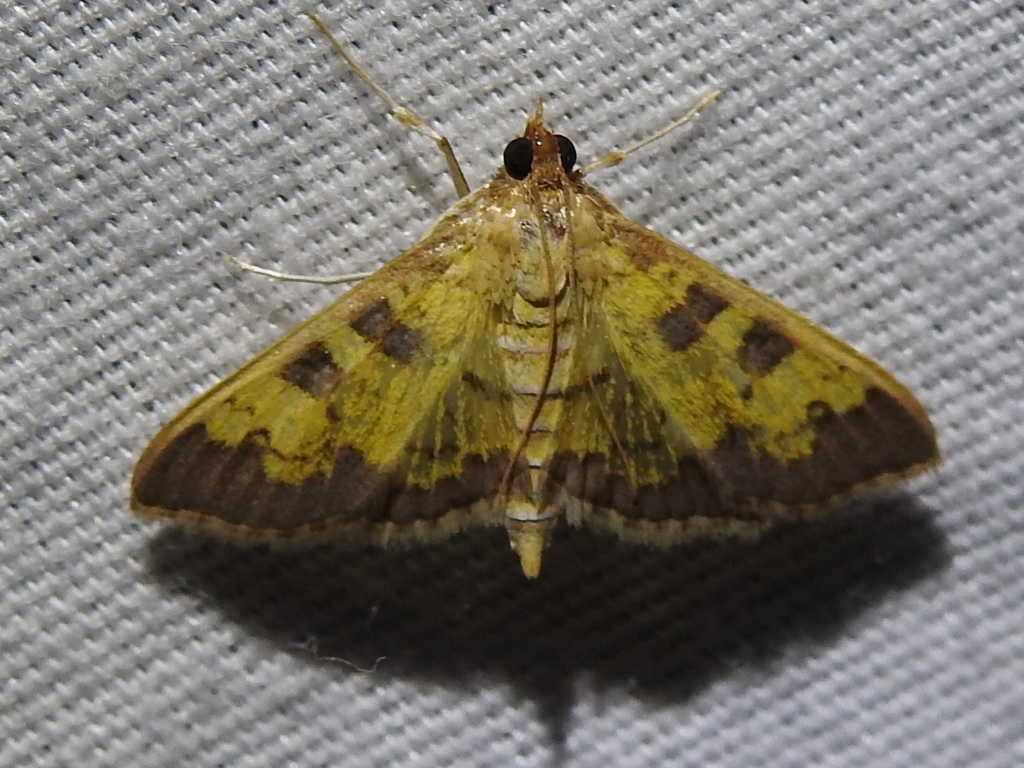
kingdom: Animalia
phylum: Arthropoda
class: Insecta
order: Lepidoptera
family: Crambidae
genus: Cryptographis
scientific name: Cryptographis elealis
